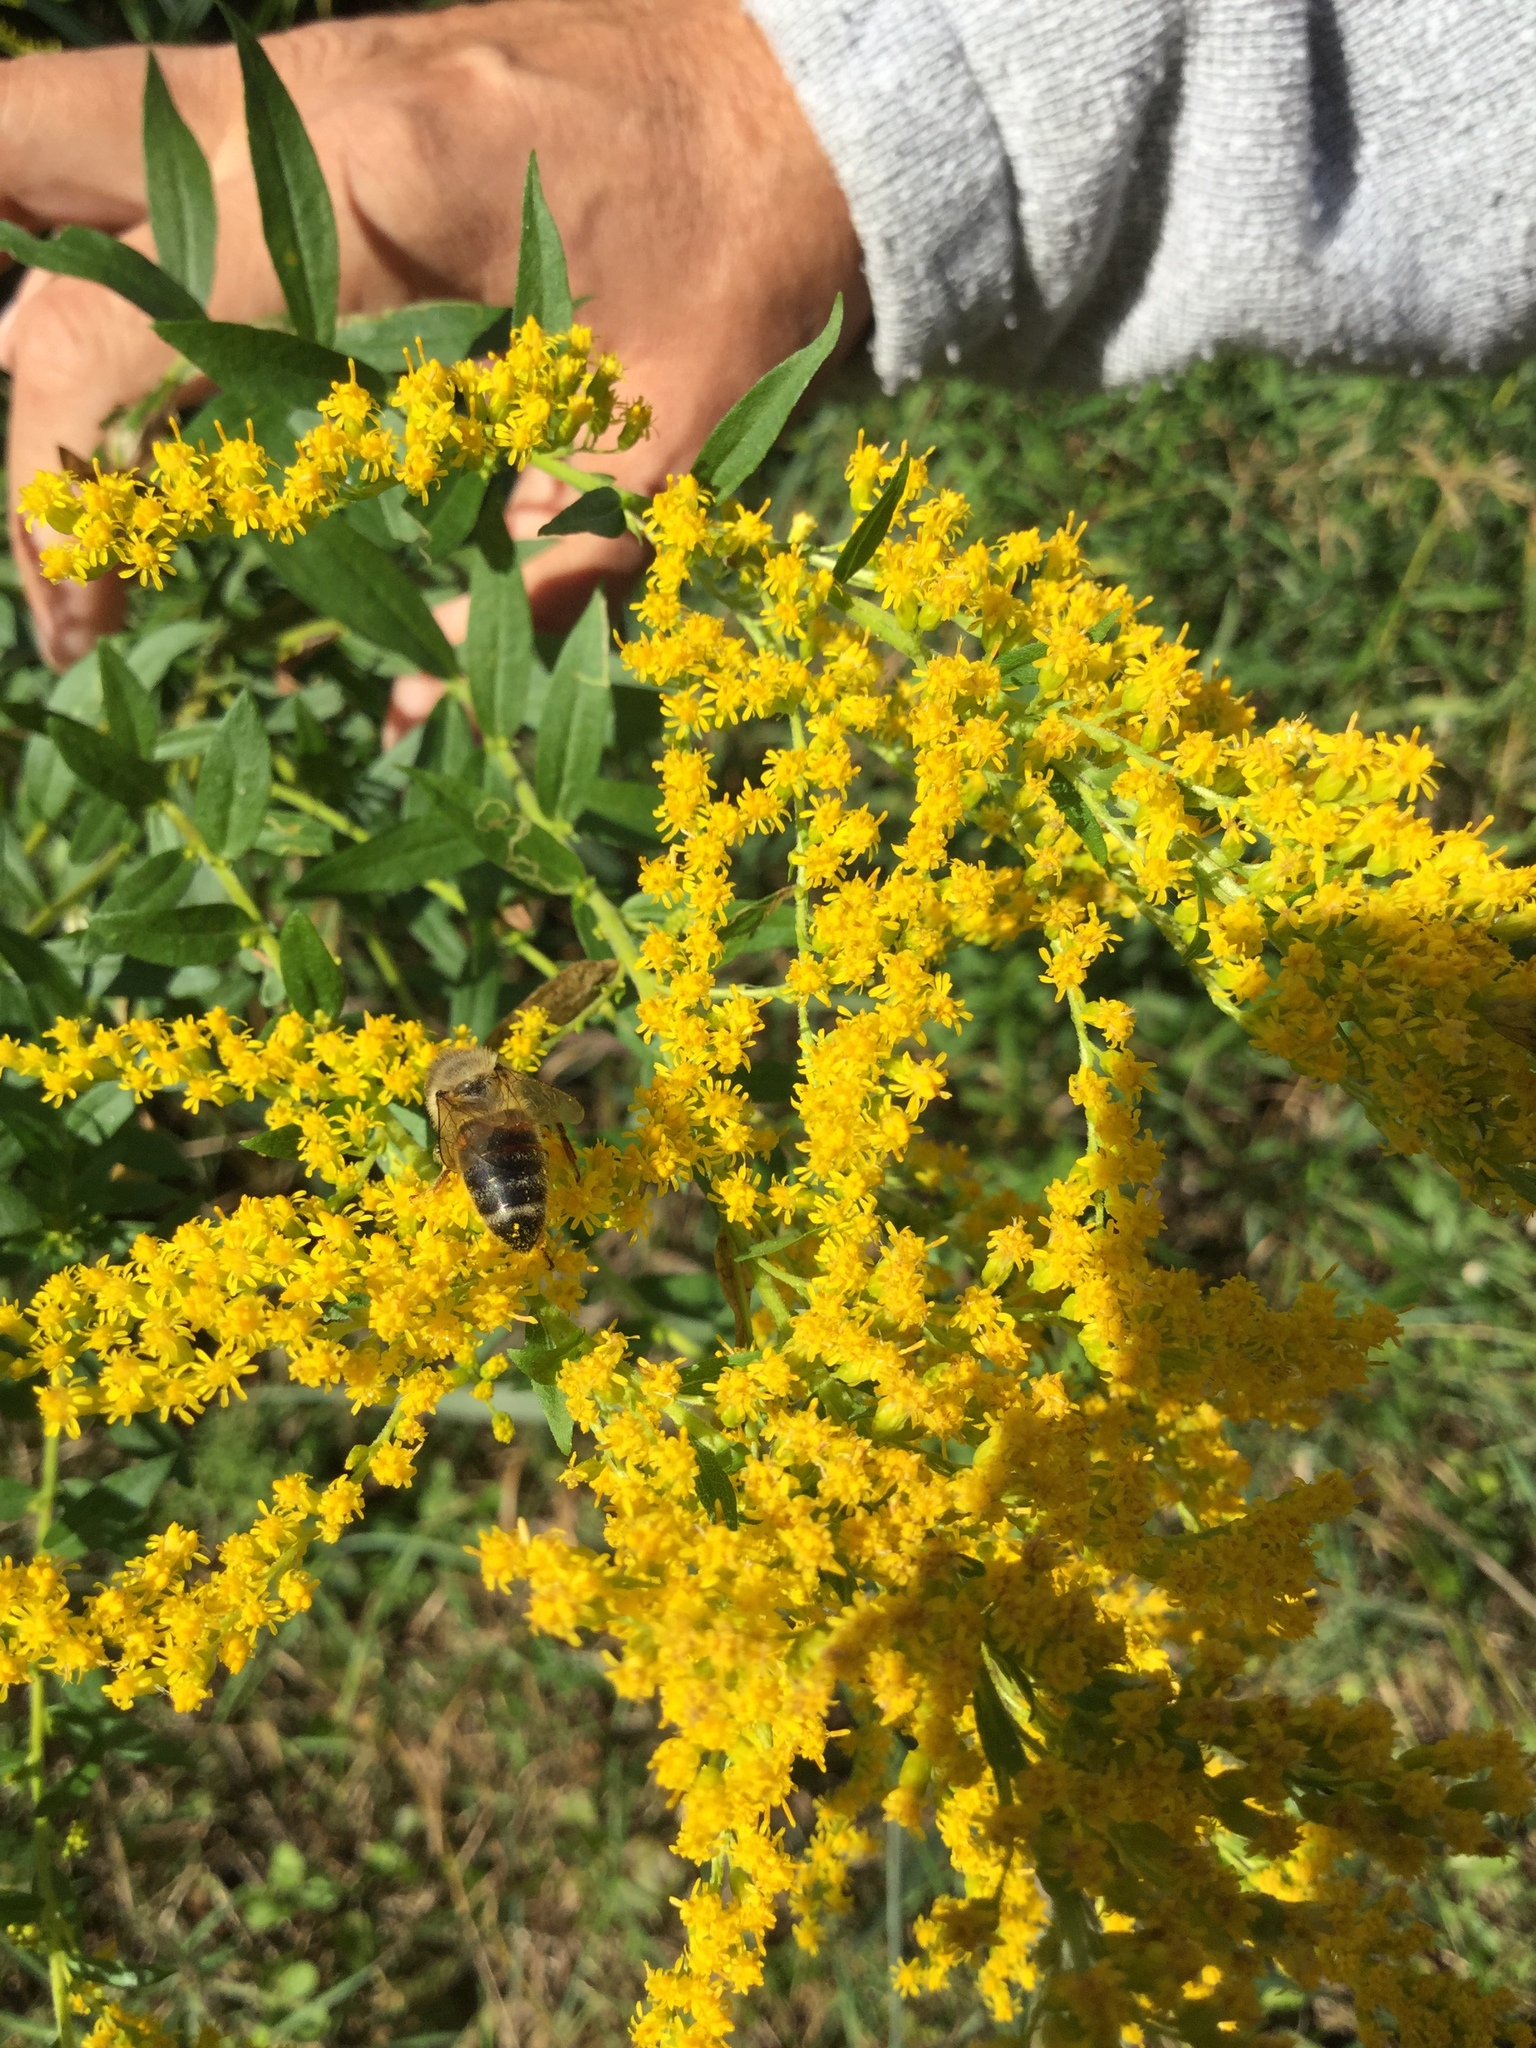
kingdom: Animalia
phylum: Arthropoda
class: Insecta
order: Hymenoptera
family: Apidae
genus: Apis
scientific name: Apis mellifera
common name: Honey bee
